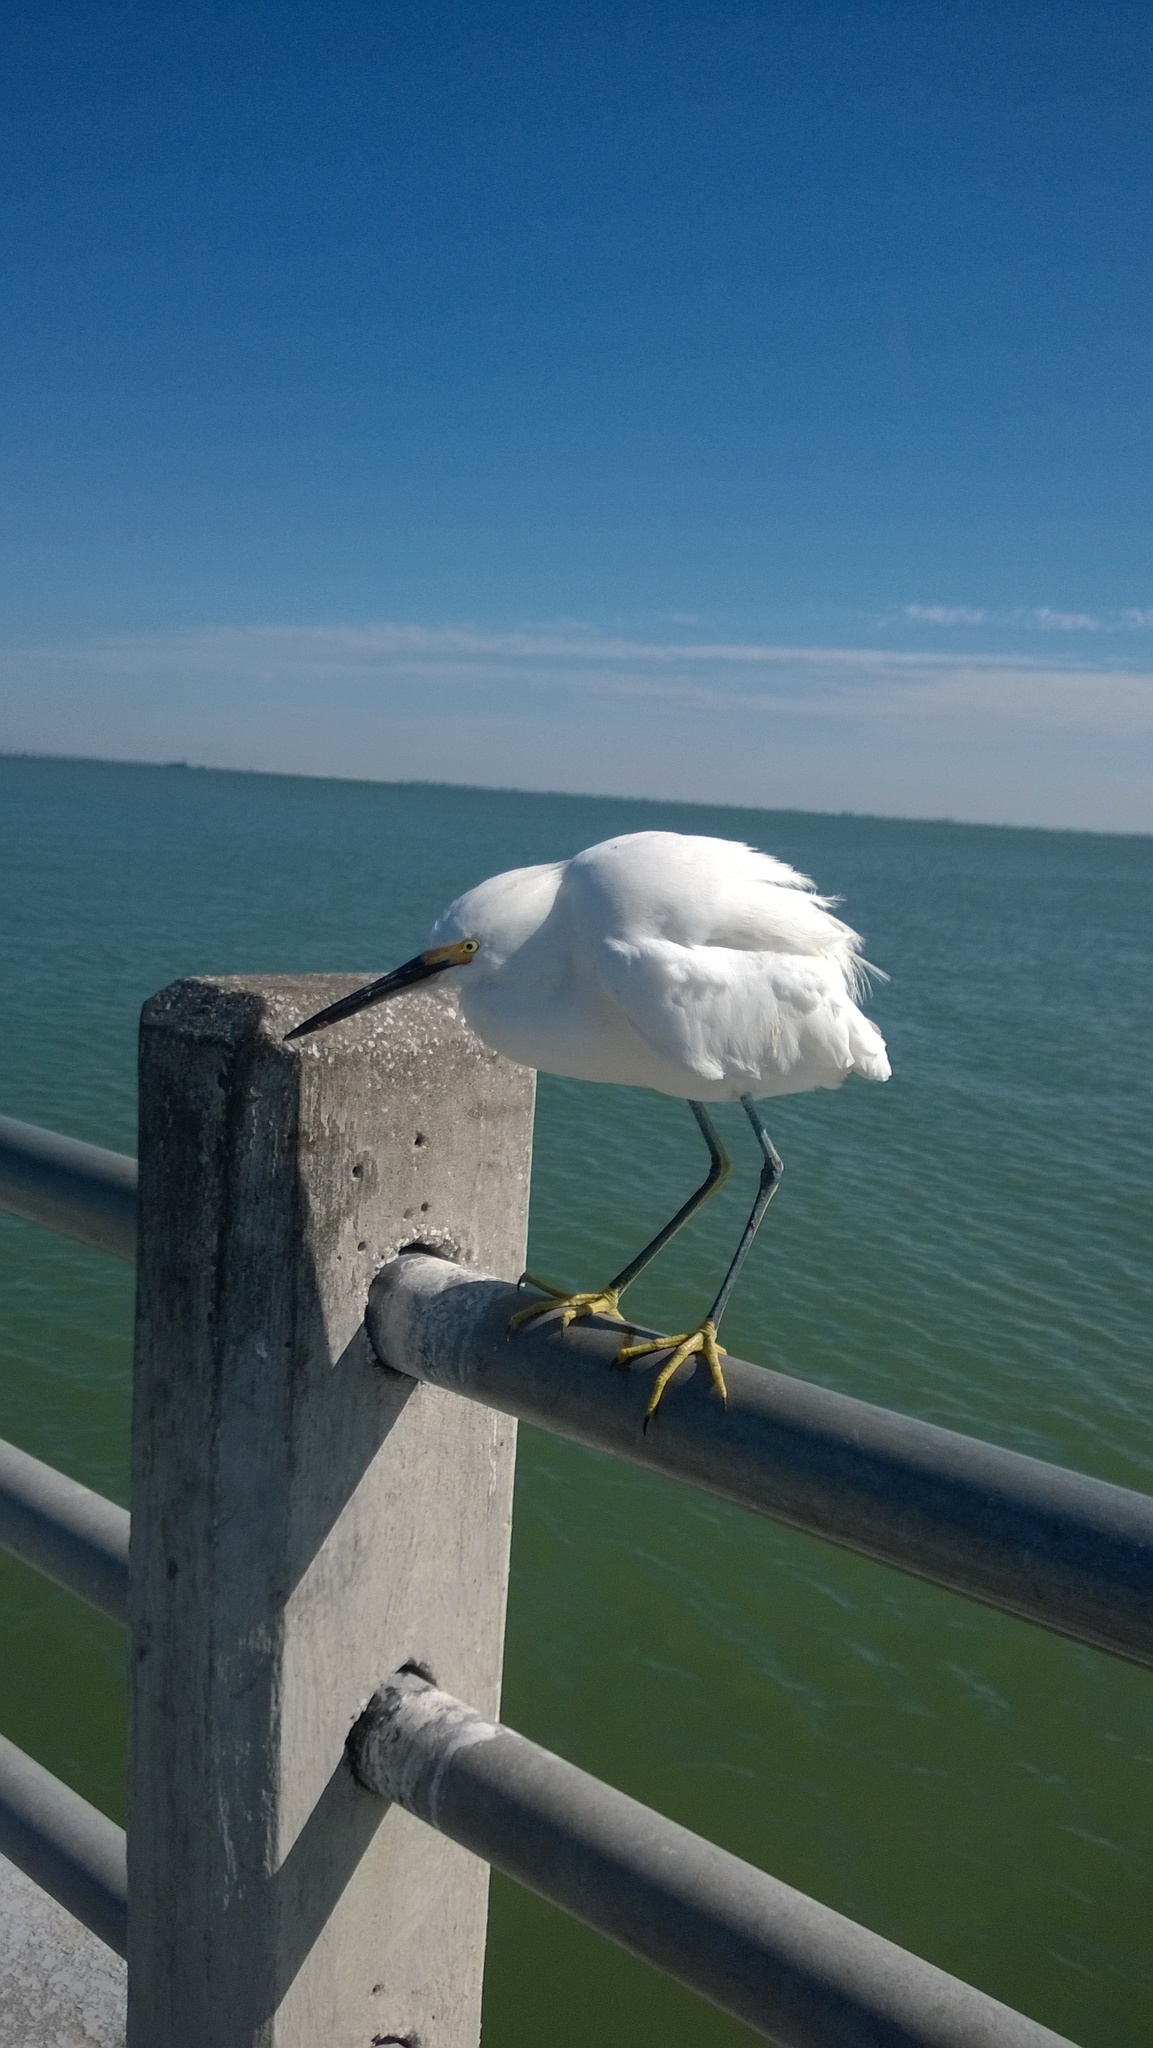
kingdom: Animalia
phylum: Chordata
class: Aves
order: Pelecaniformes
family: Ardeidae
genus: Egretta
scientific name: Egretta thula
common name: Snowy egret
